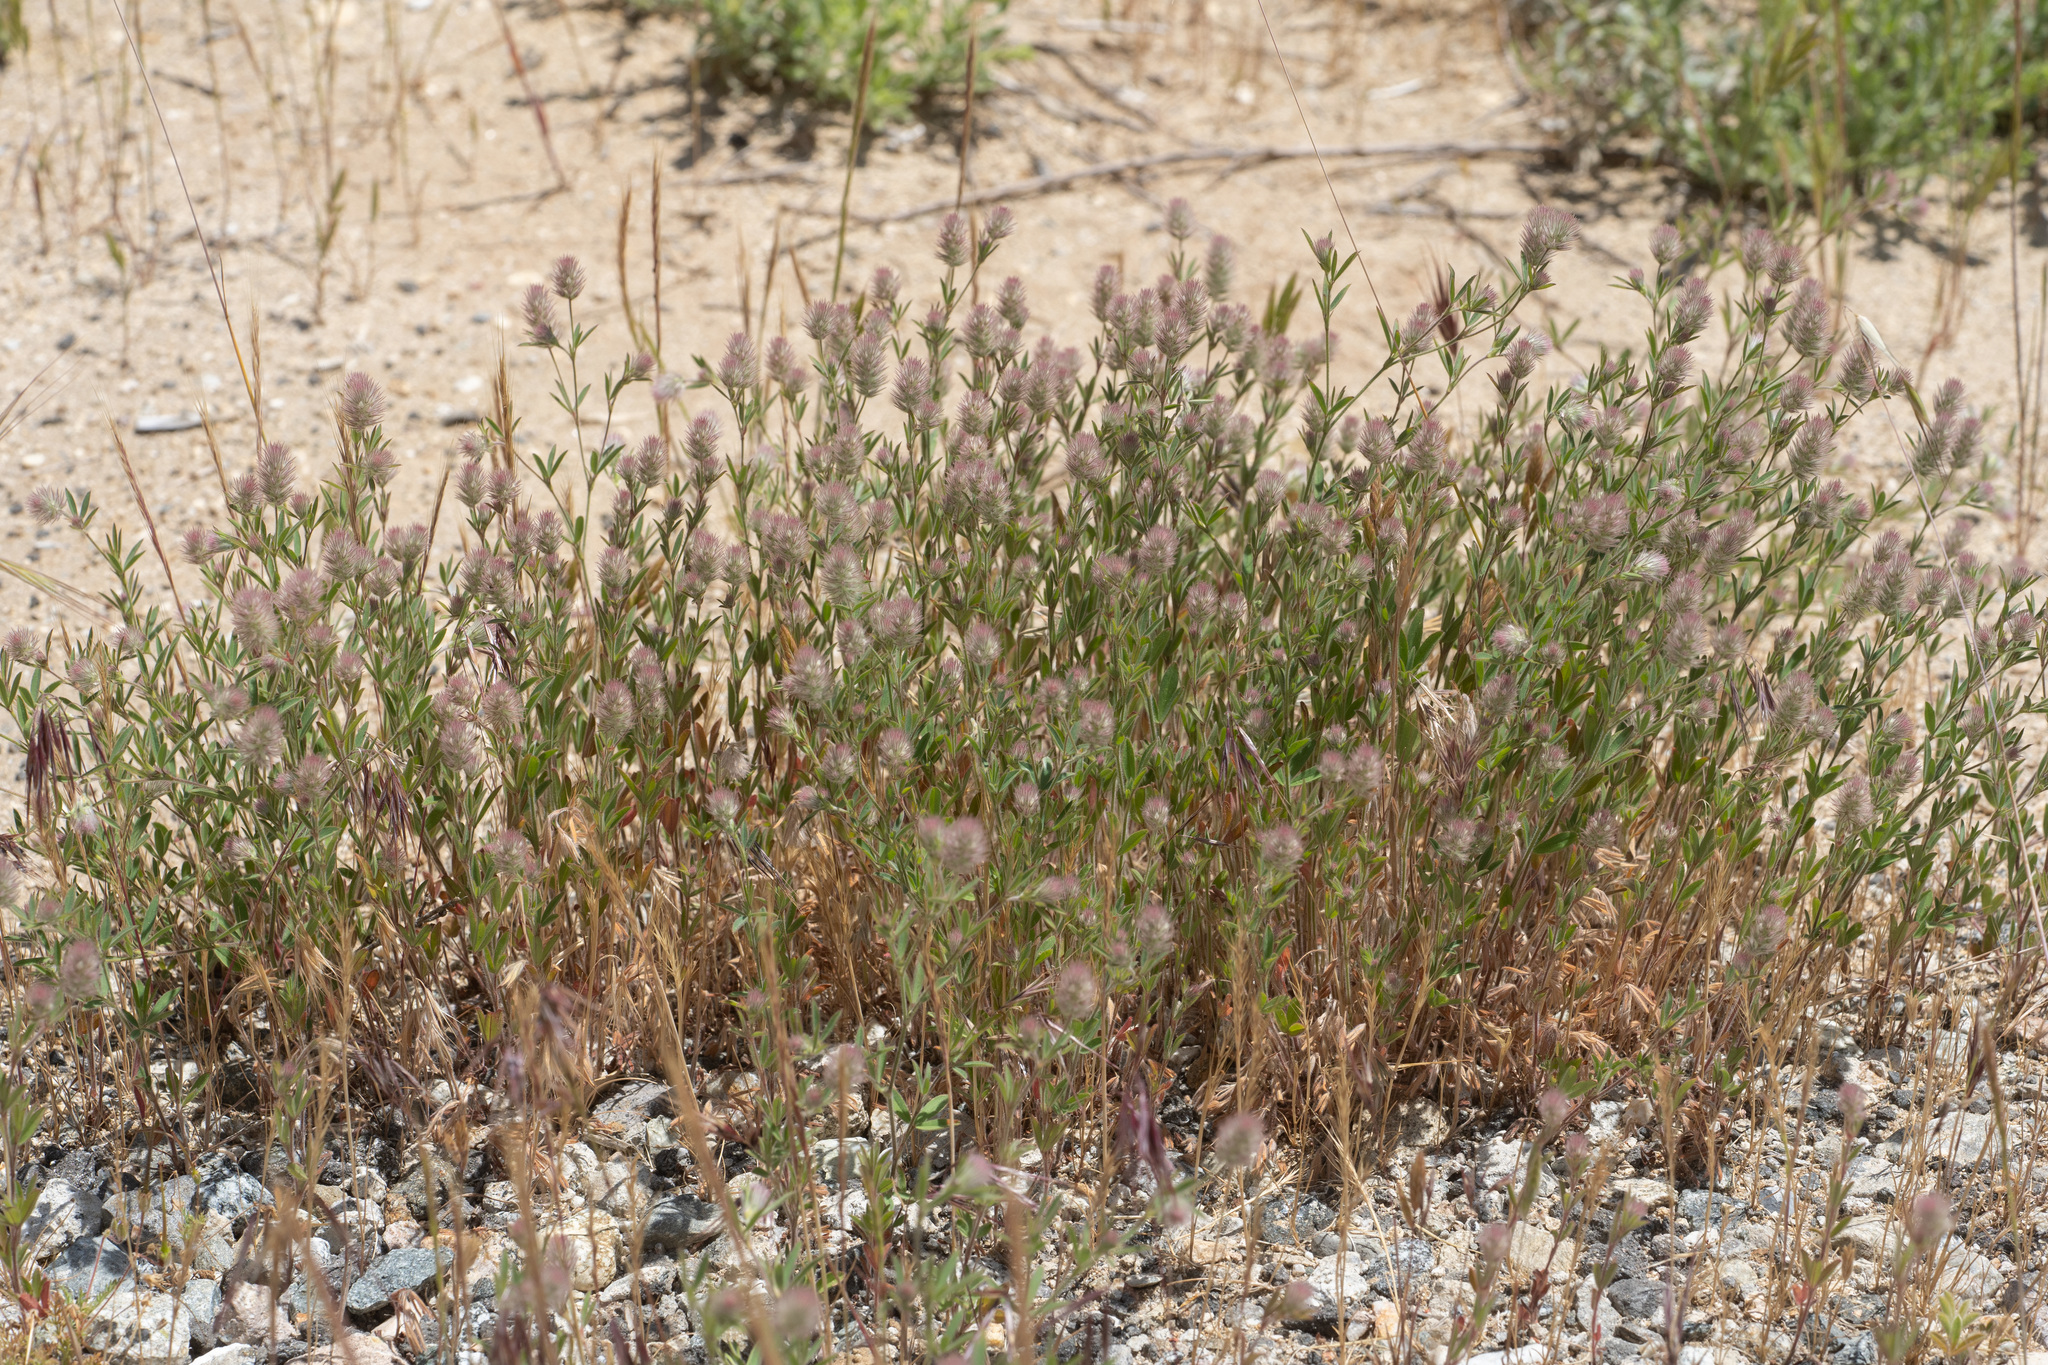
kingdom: Plantae
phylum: Tracheophyta
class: Magnoliopsida
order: Fabales
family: Fabaceae
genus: Trifolium
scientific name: Trifolium arvense
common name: Hare's-foot clover
